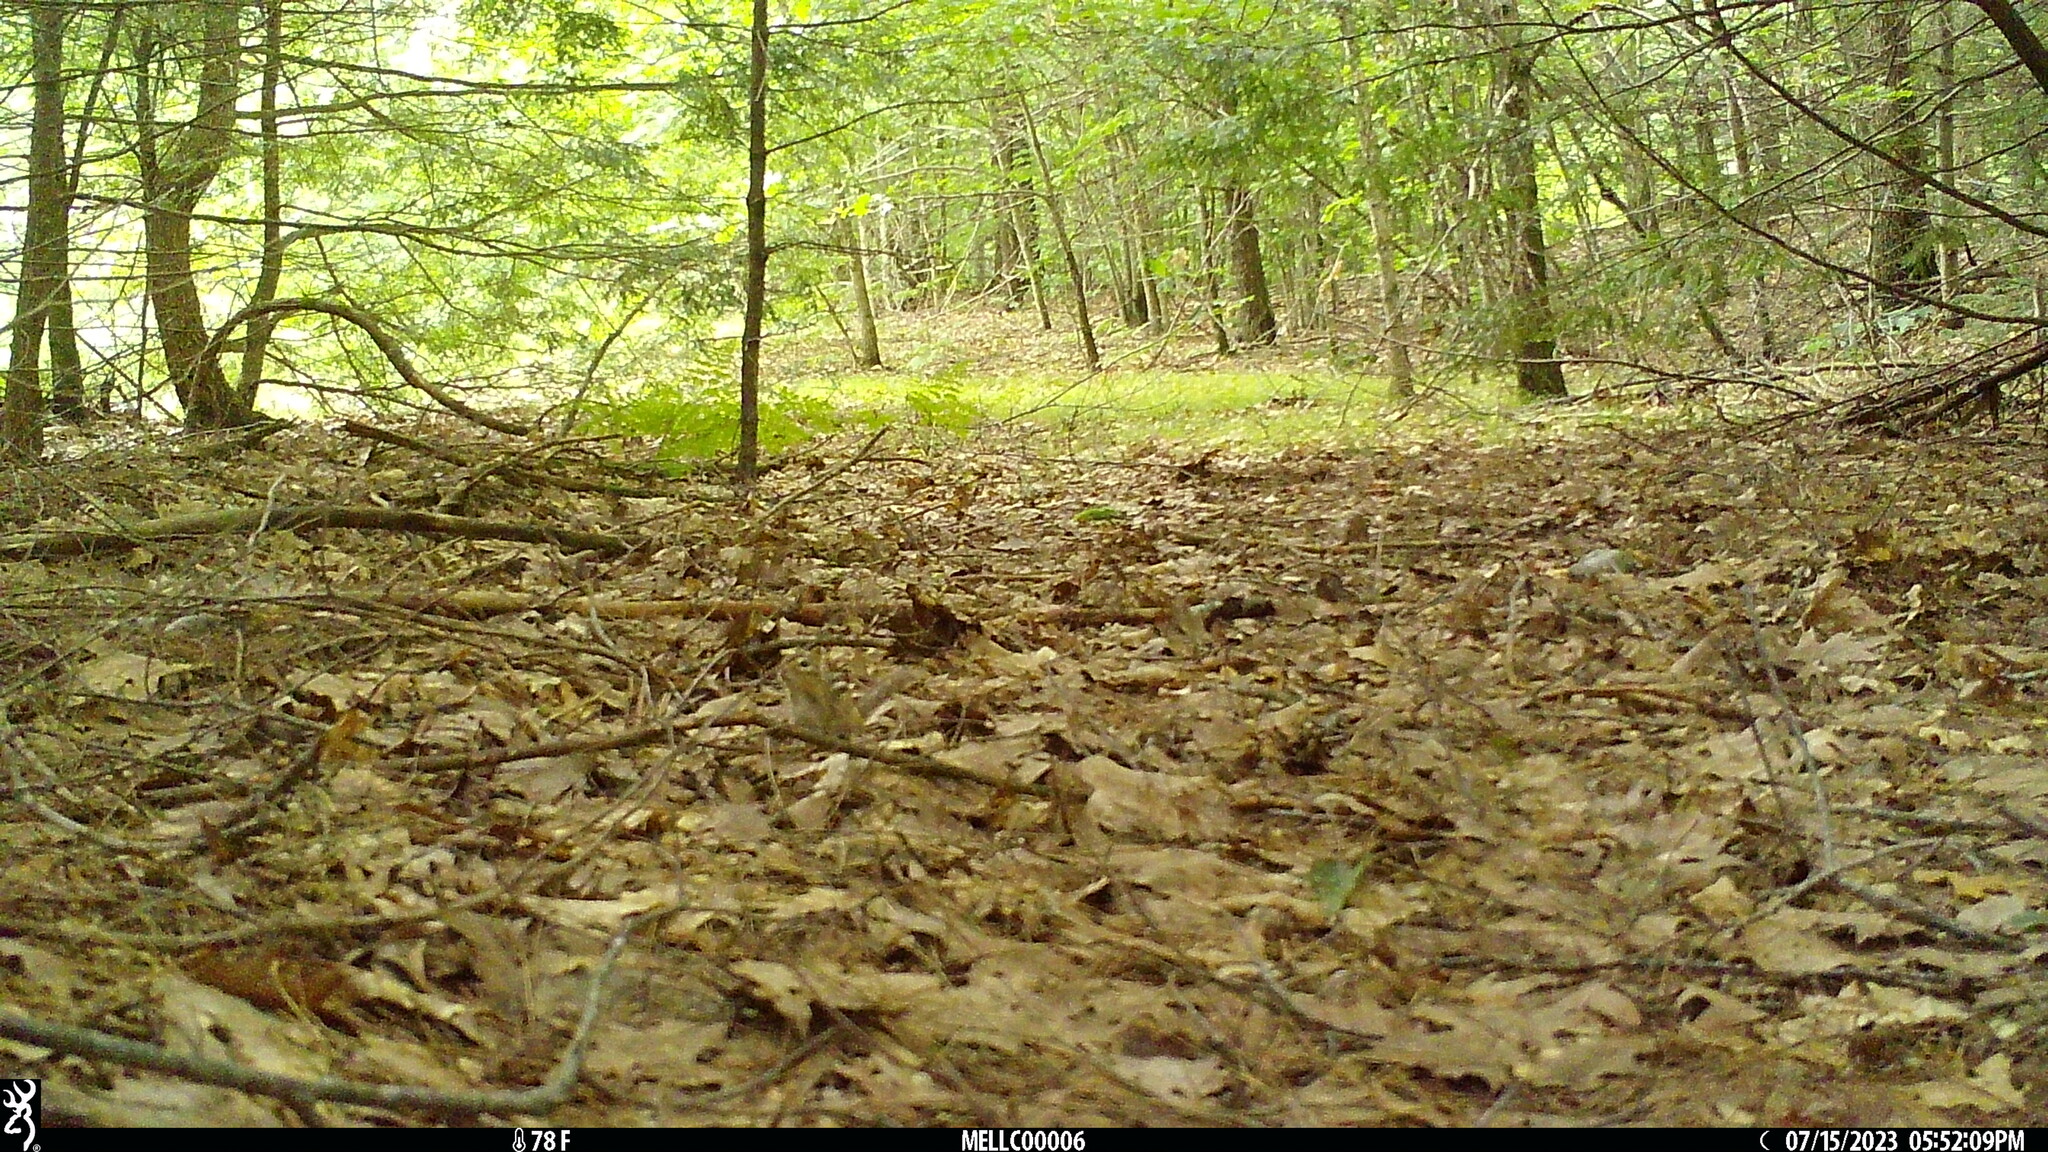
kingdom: Animalia
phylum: Chordata
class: Mammalia
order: Rodentia
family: Sciuridae
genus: Tamias
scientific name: Tamias striatus
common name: Eastern chipmunk
